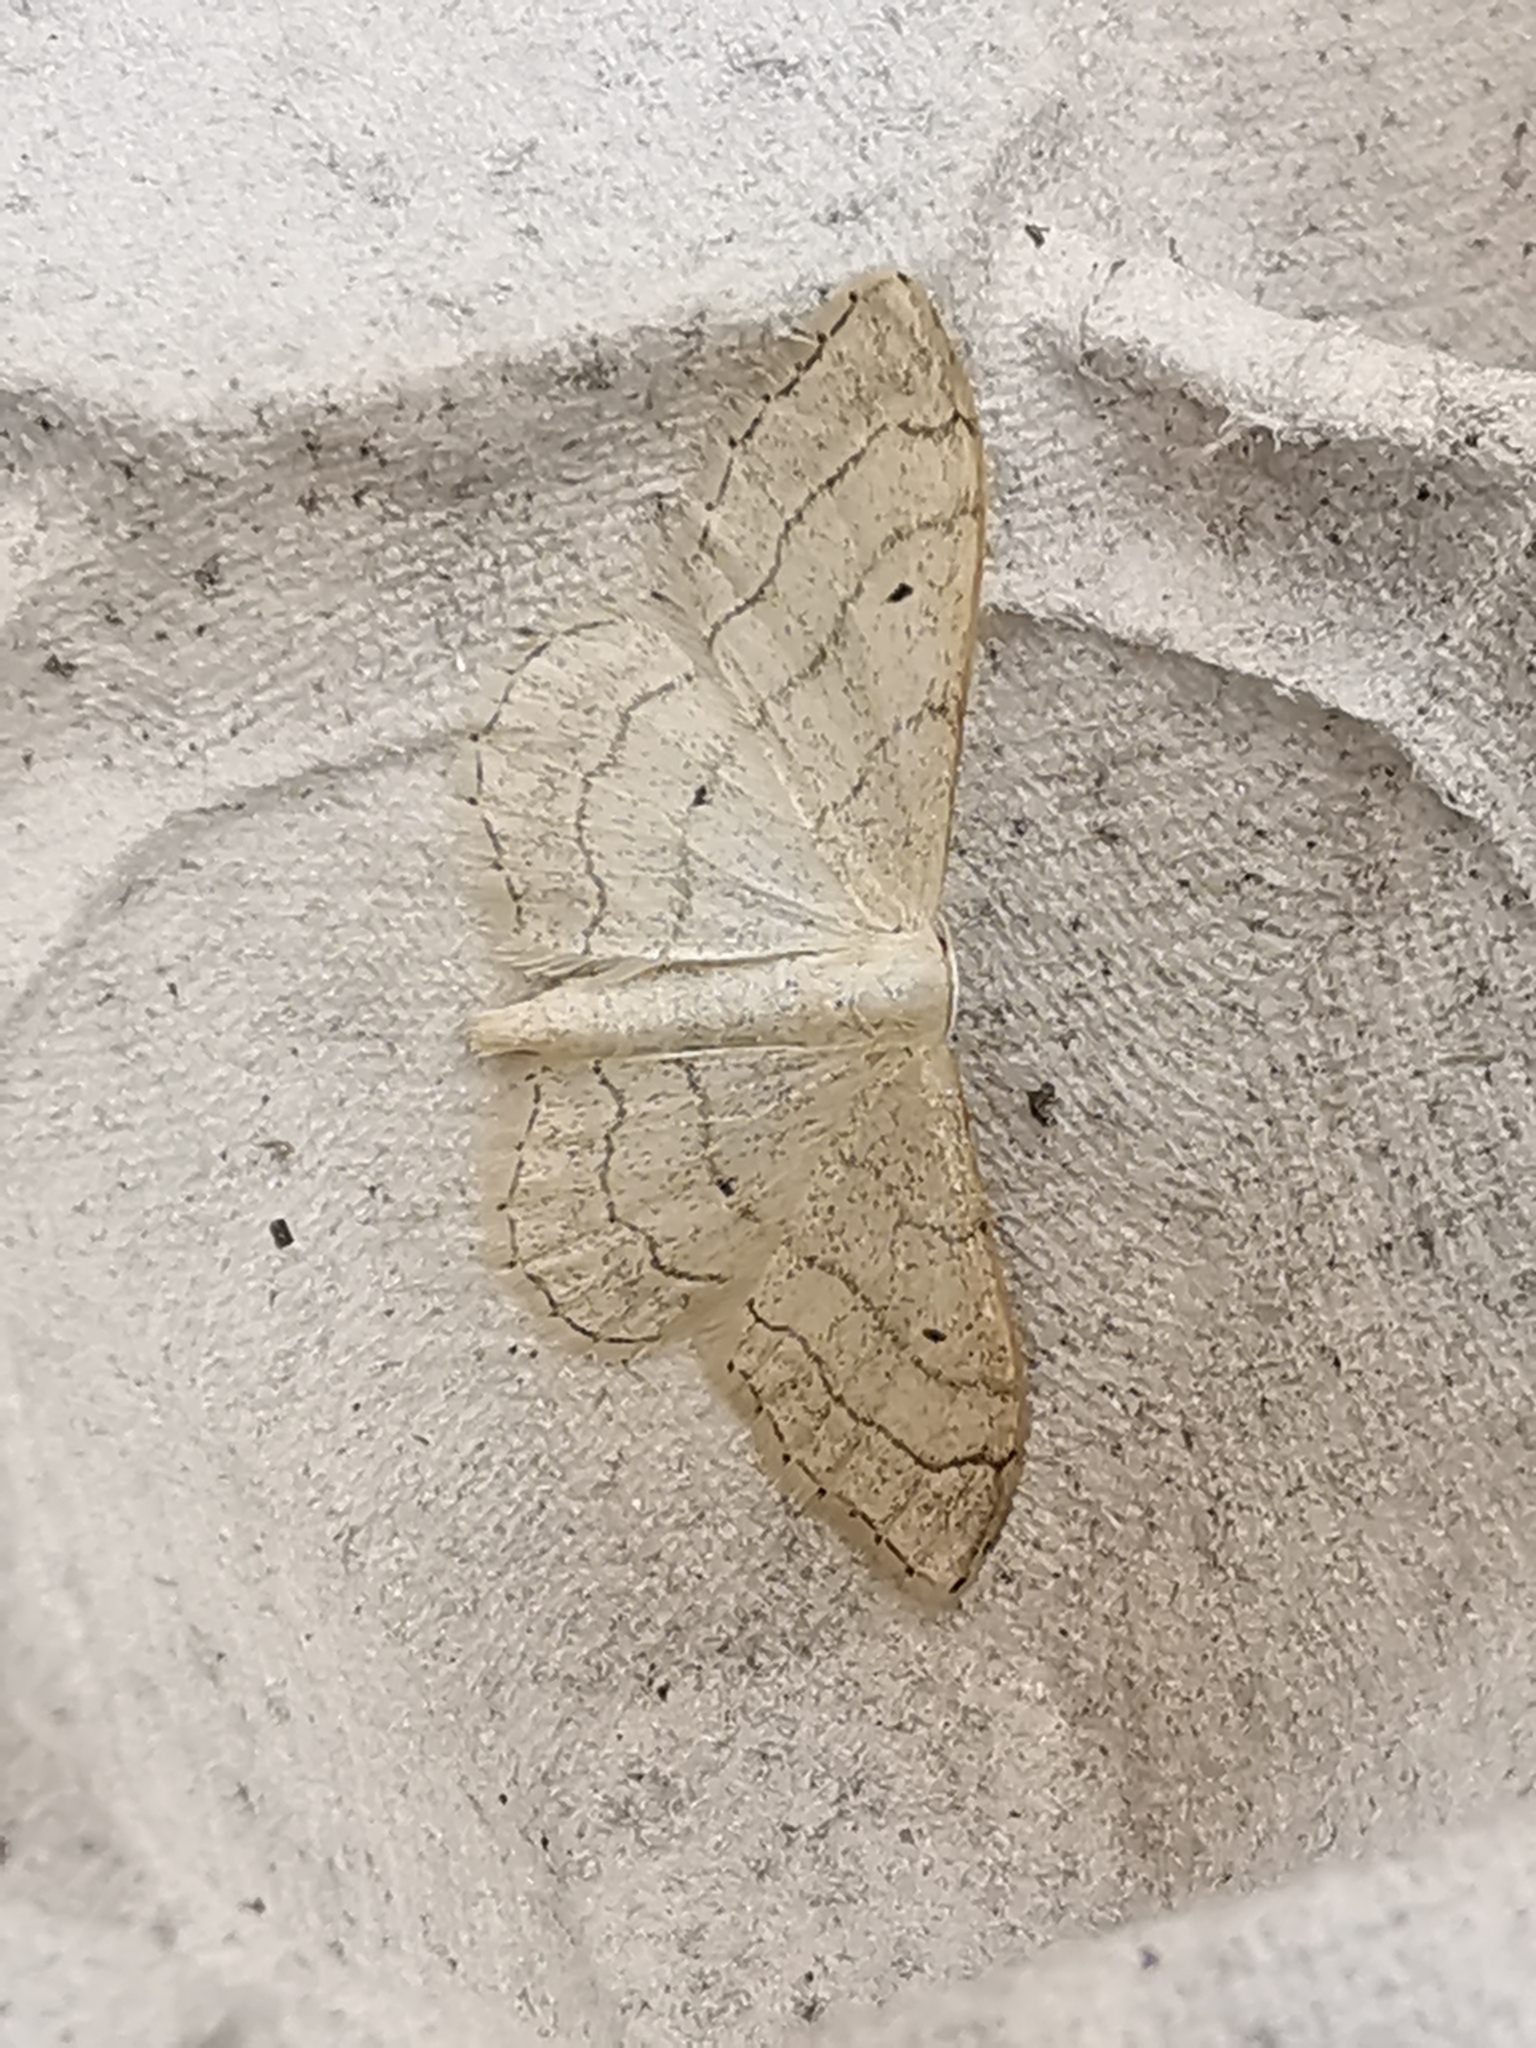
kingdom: Animalia
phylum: Arthropoda
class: Insecta
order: Lepidoptera
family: Geometridae
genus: Idaea
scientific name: Idaea aversata
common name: Riband wave
